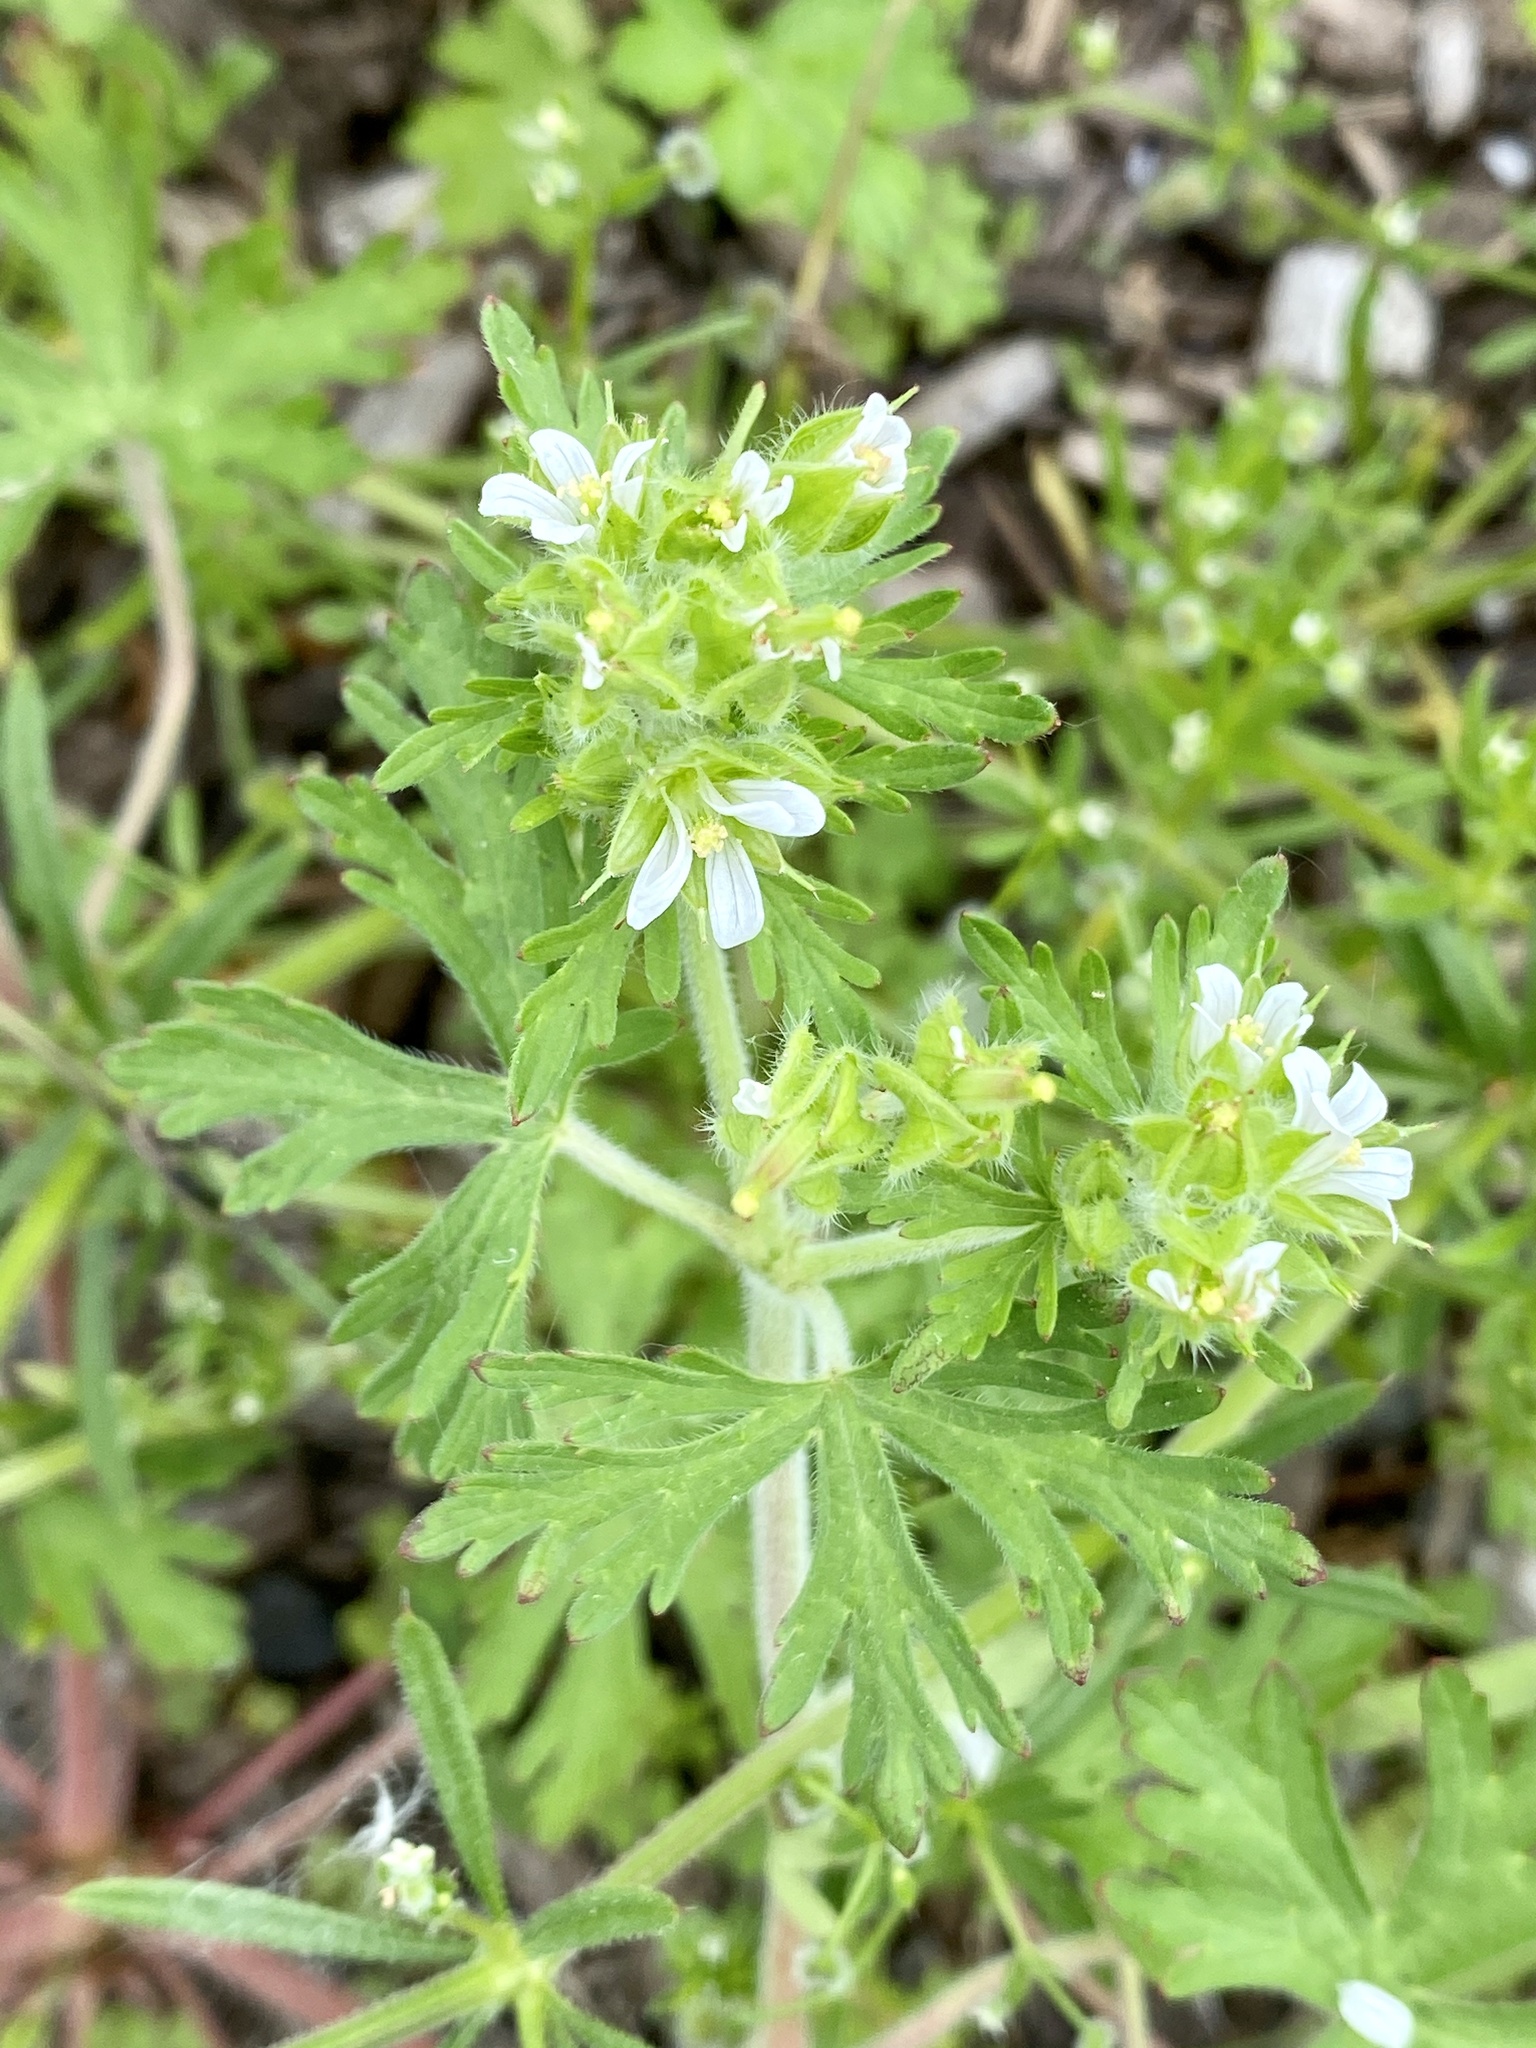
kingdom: Plantae
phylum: Tracheophyta
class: Magnoliopsida
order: Geraniales
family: Geraniaceae
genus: Geranium
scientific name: Geranium carolinianum
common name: Carolina crane's-bill
